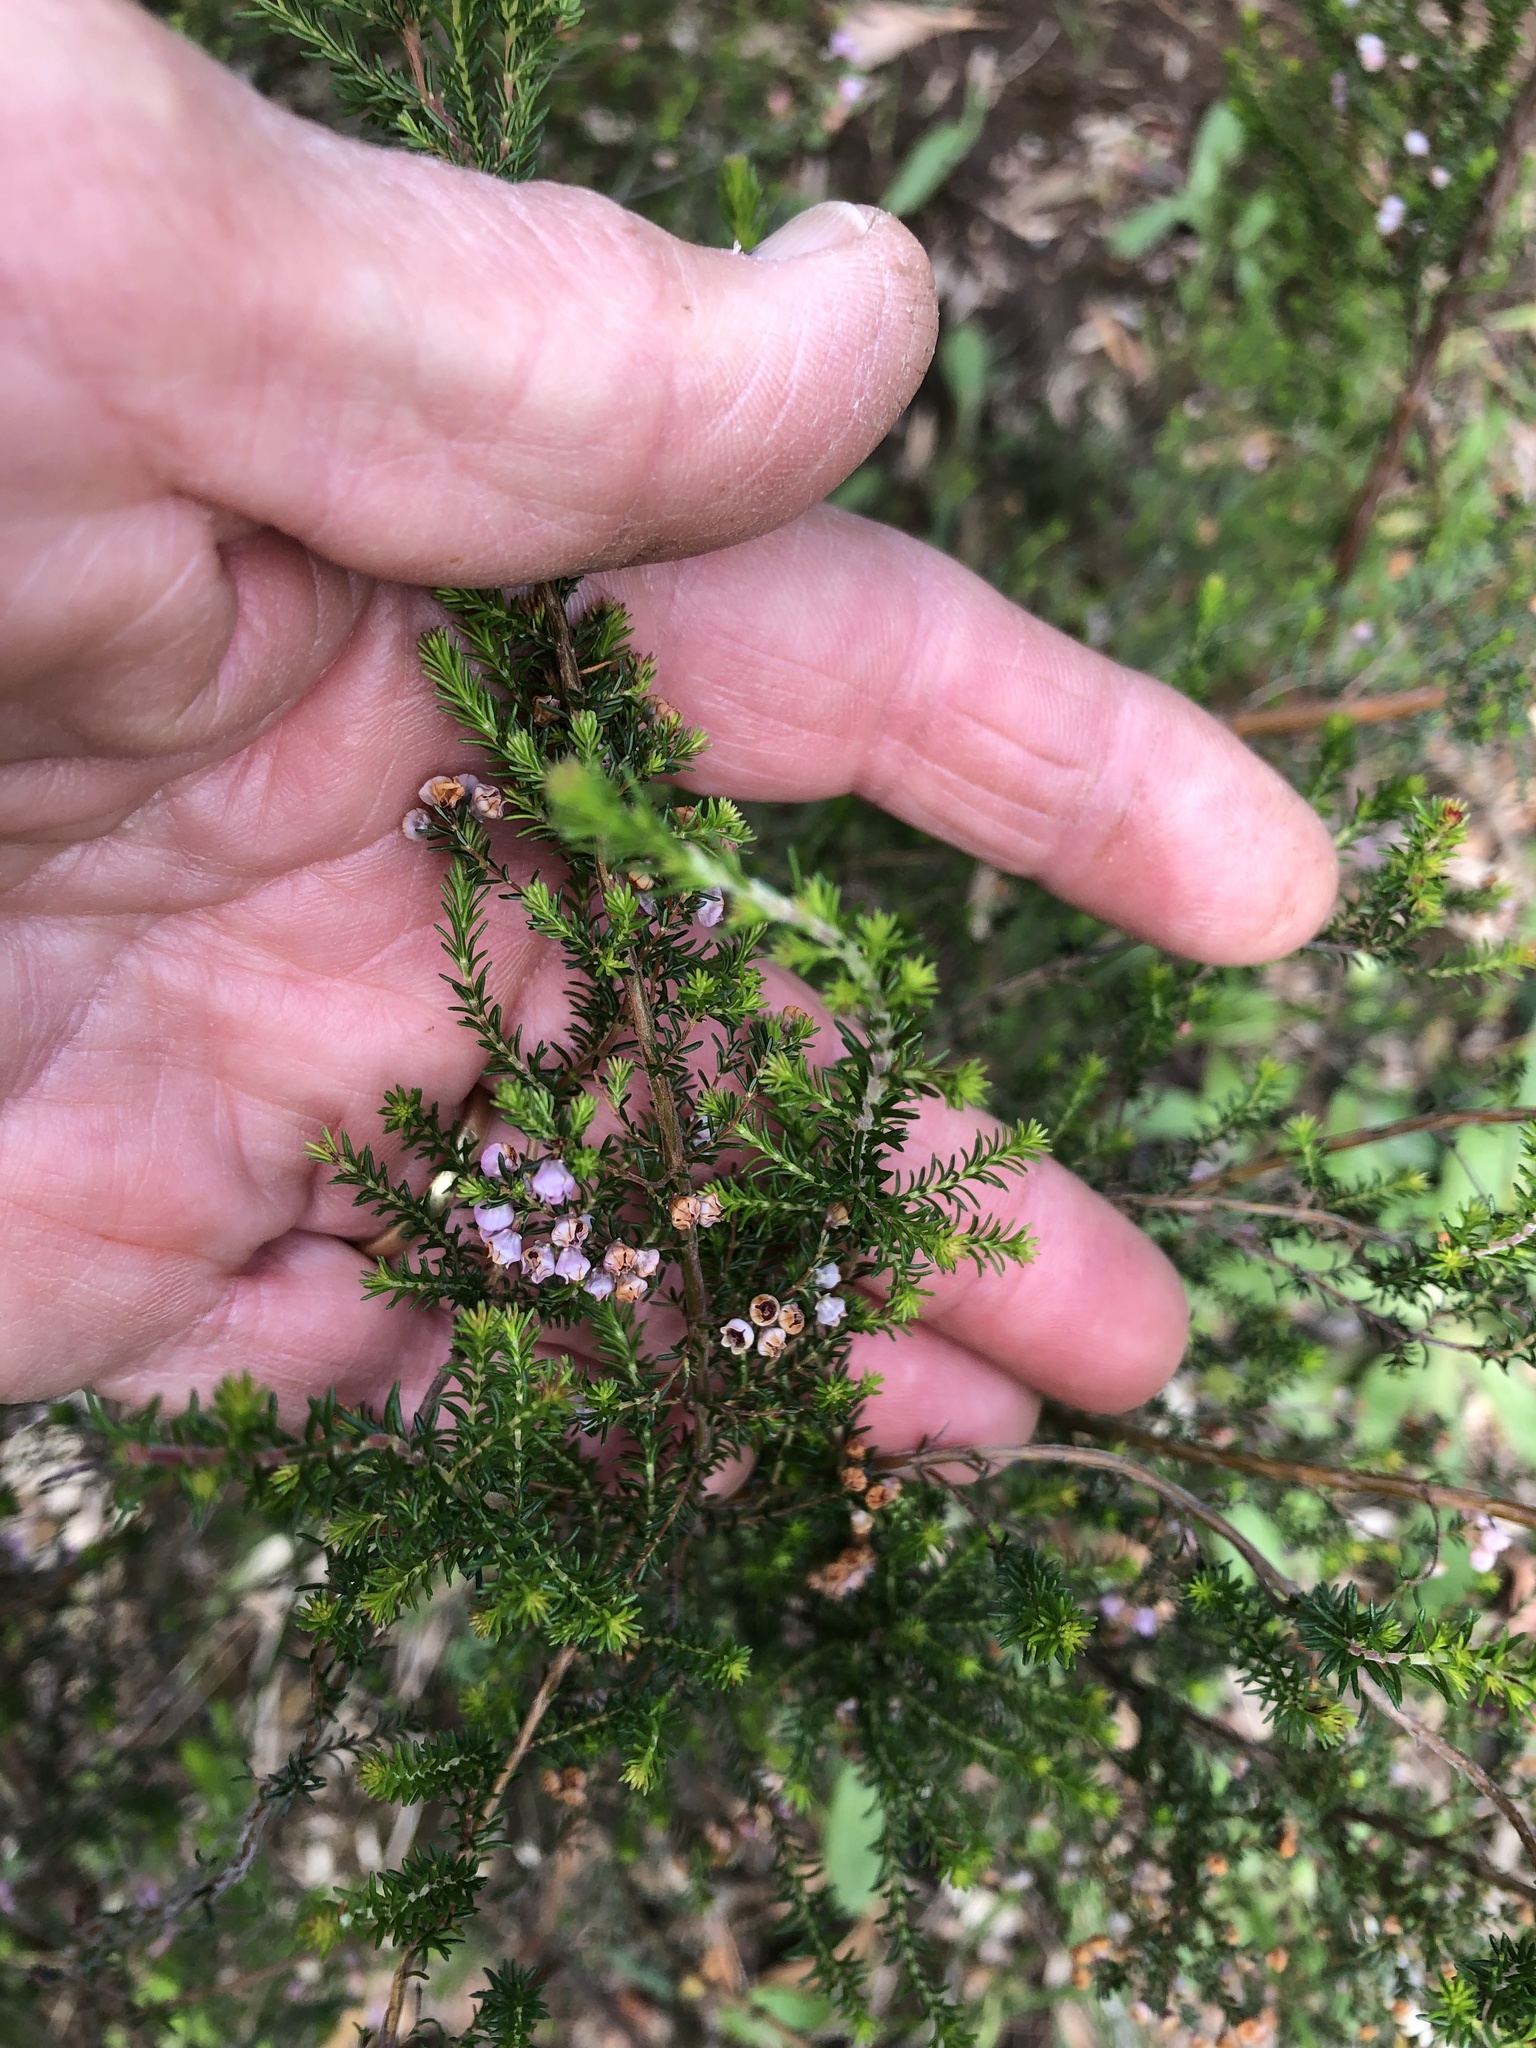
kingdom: Plantae
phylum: Tracheophyta
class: Magnoliopsida
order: Ericales
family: Ericaceae
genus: Erica
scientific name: Erica mauritanica
